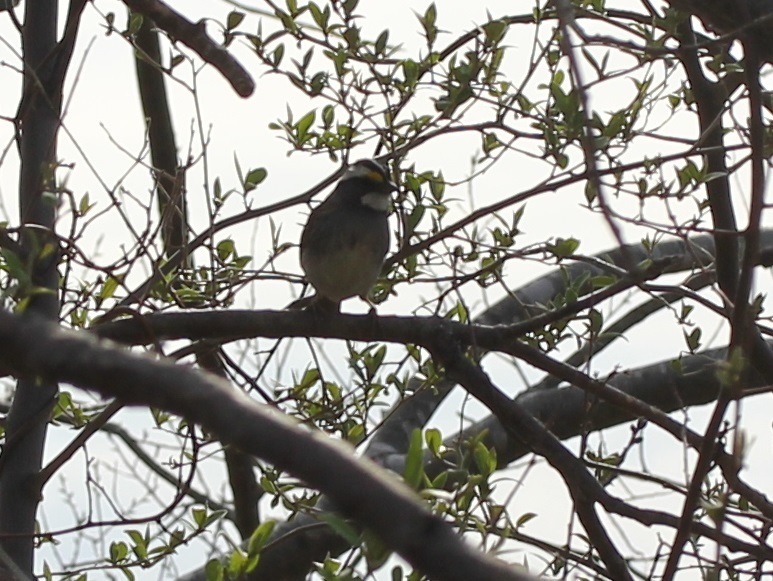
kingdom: Animalia
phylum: Chordata
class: Aves
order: Passeriformes
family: Passerellidae
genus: Zonotrichia
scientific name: Zonotrichia albicollis
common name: White-throated sparrow
